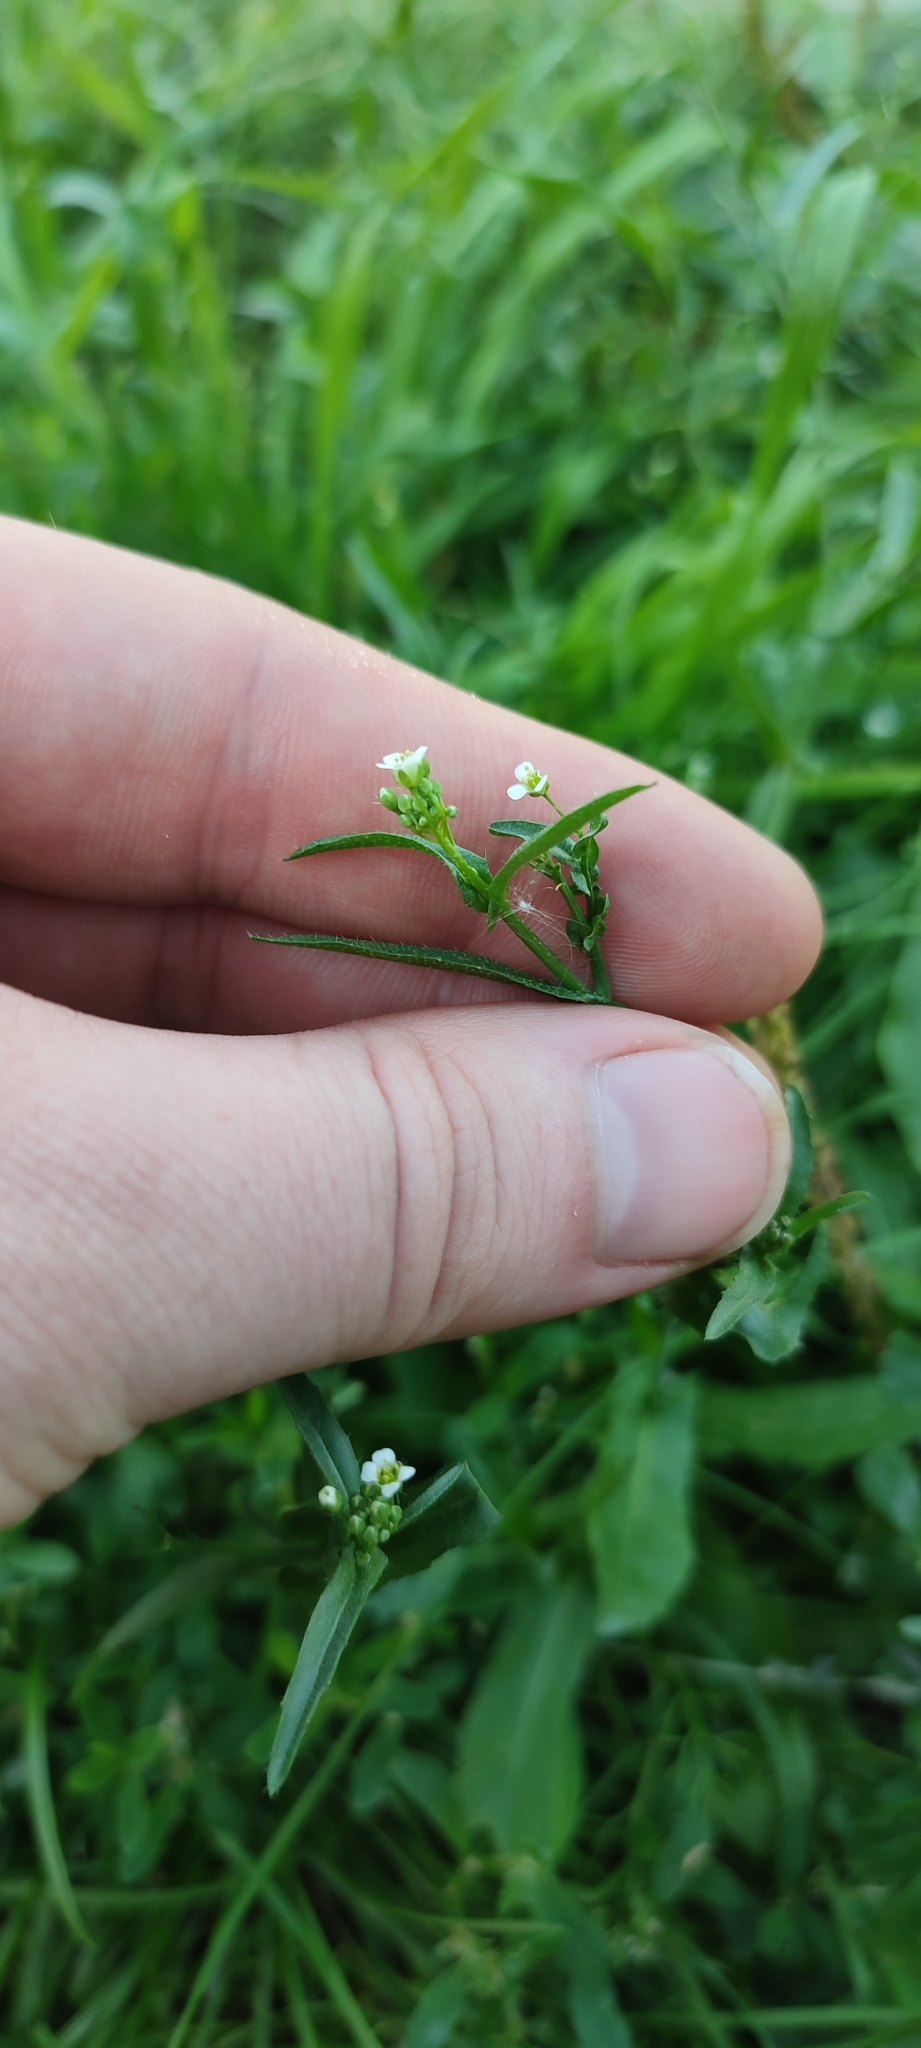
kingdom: Plantae
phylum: Tracheophyta
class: Magnoliopsida
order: Brassicales
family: Brassicaceae
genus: Thlaspi
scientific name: Thlaspi arvense
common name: Field pennycress
